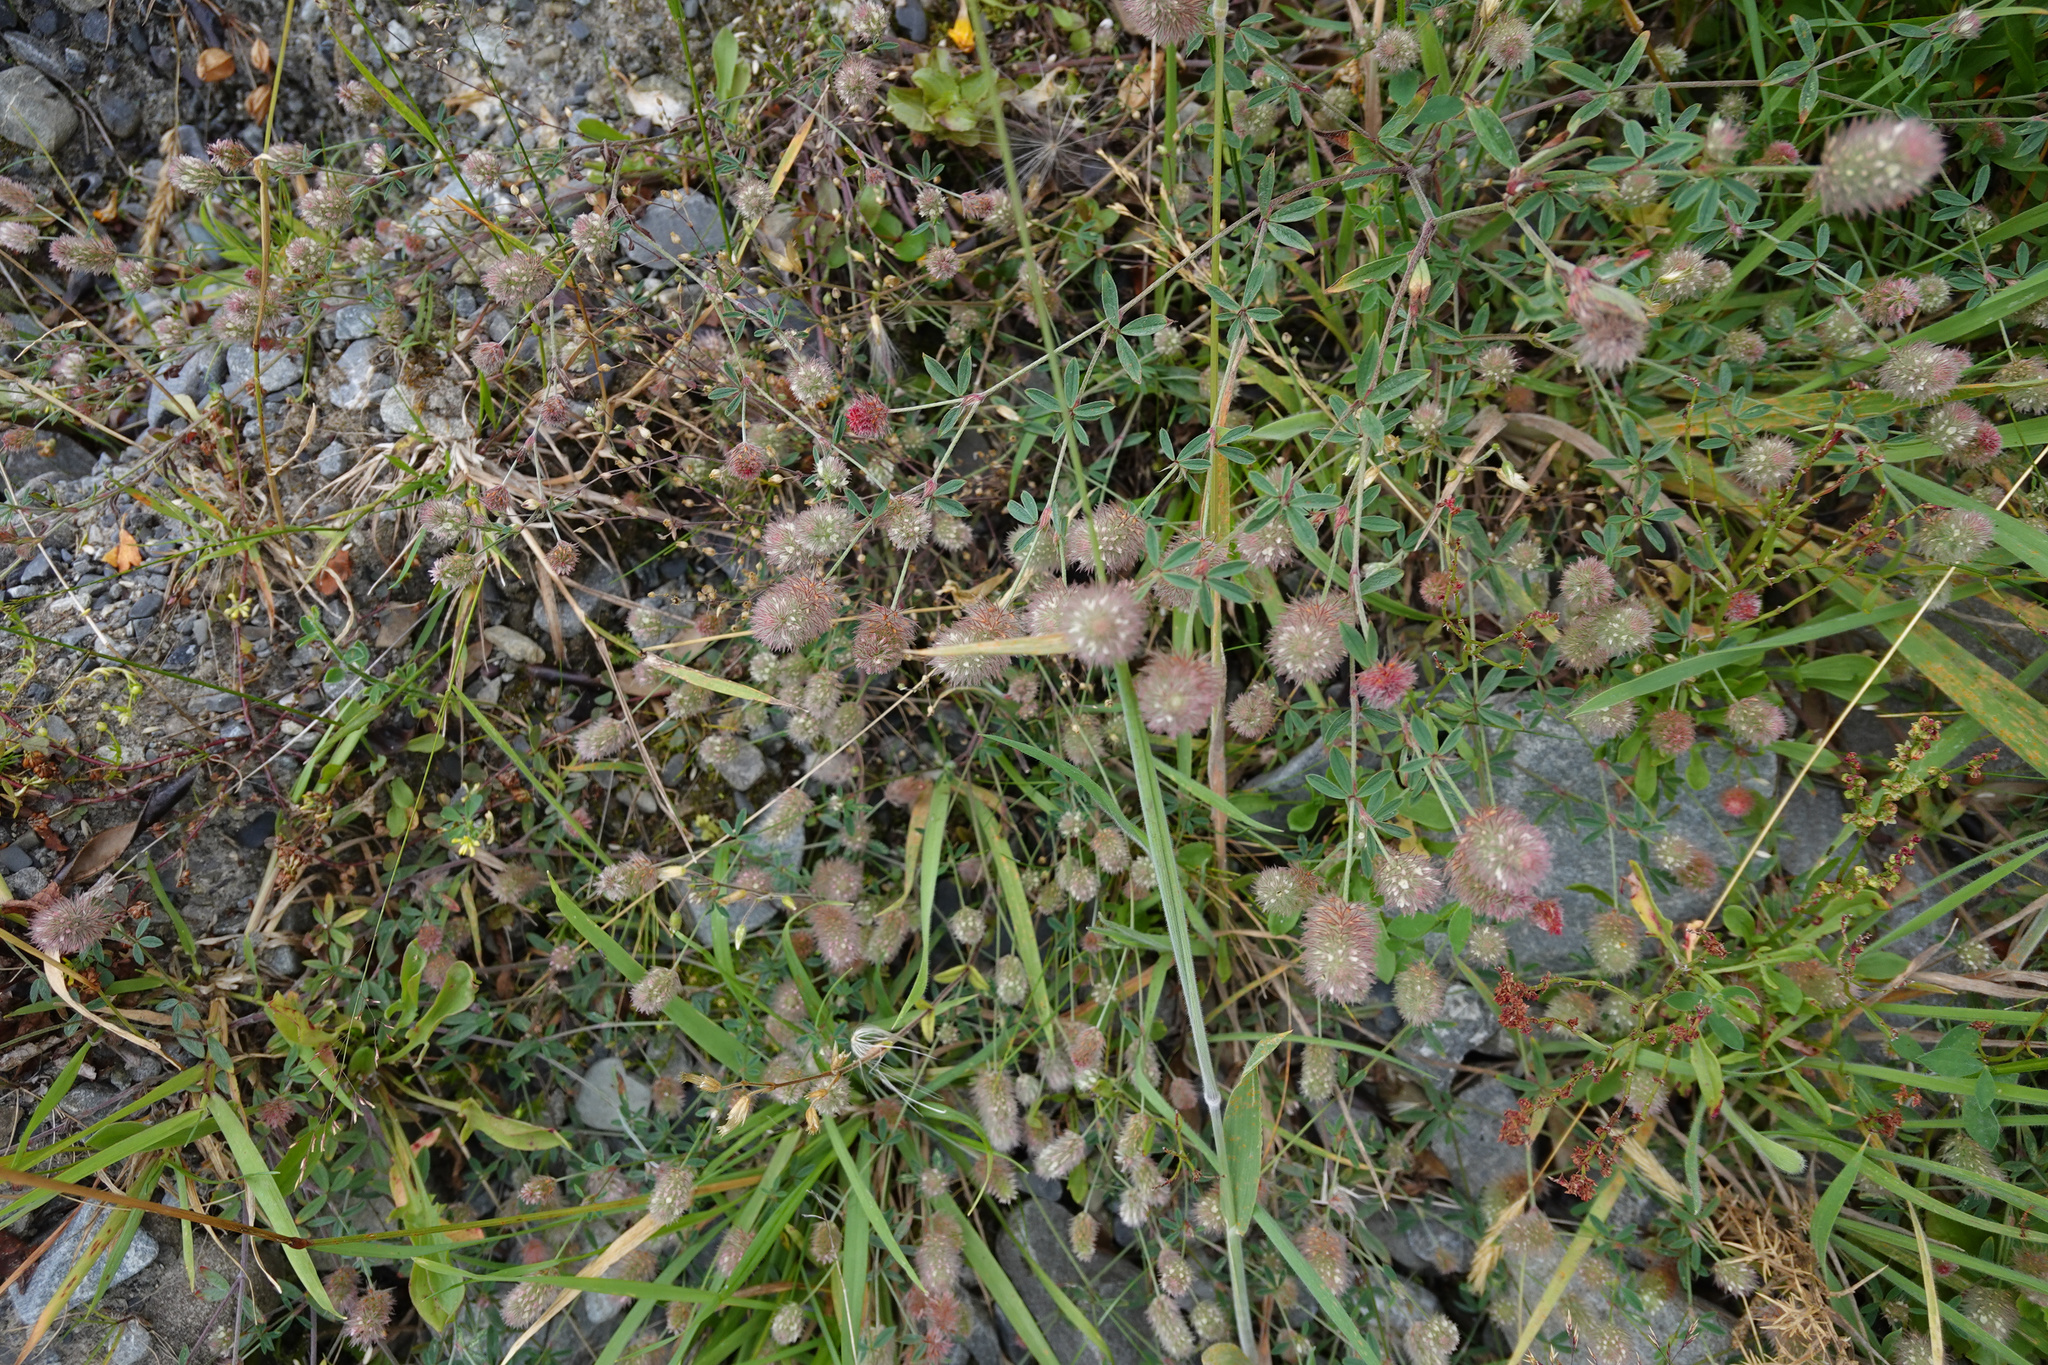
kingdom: Plantae
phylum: Tracheophyta
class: Magnoliopsida
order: Fabales
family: Fabaceae
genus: Trifolium
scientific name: Trifolium arvense
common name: Hare's-foot clover
